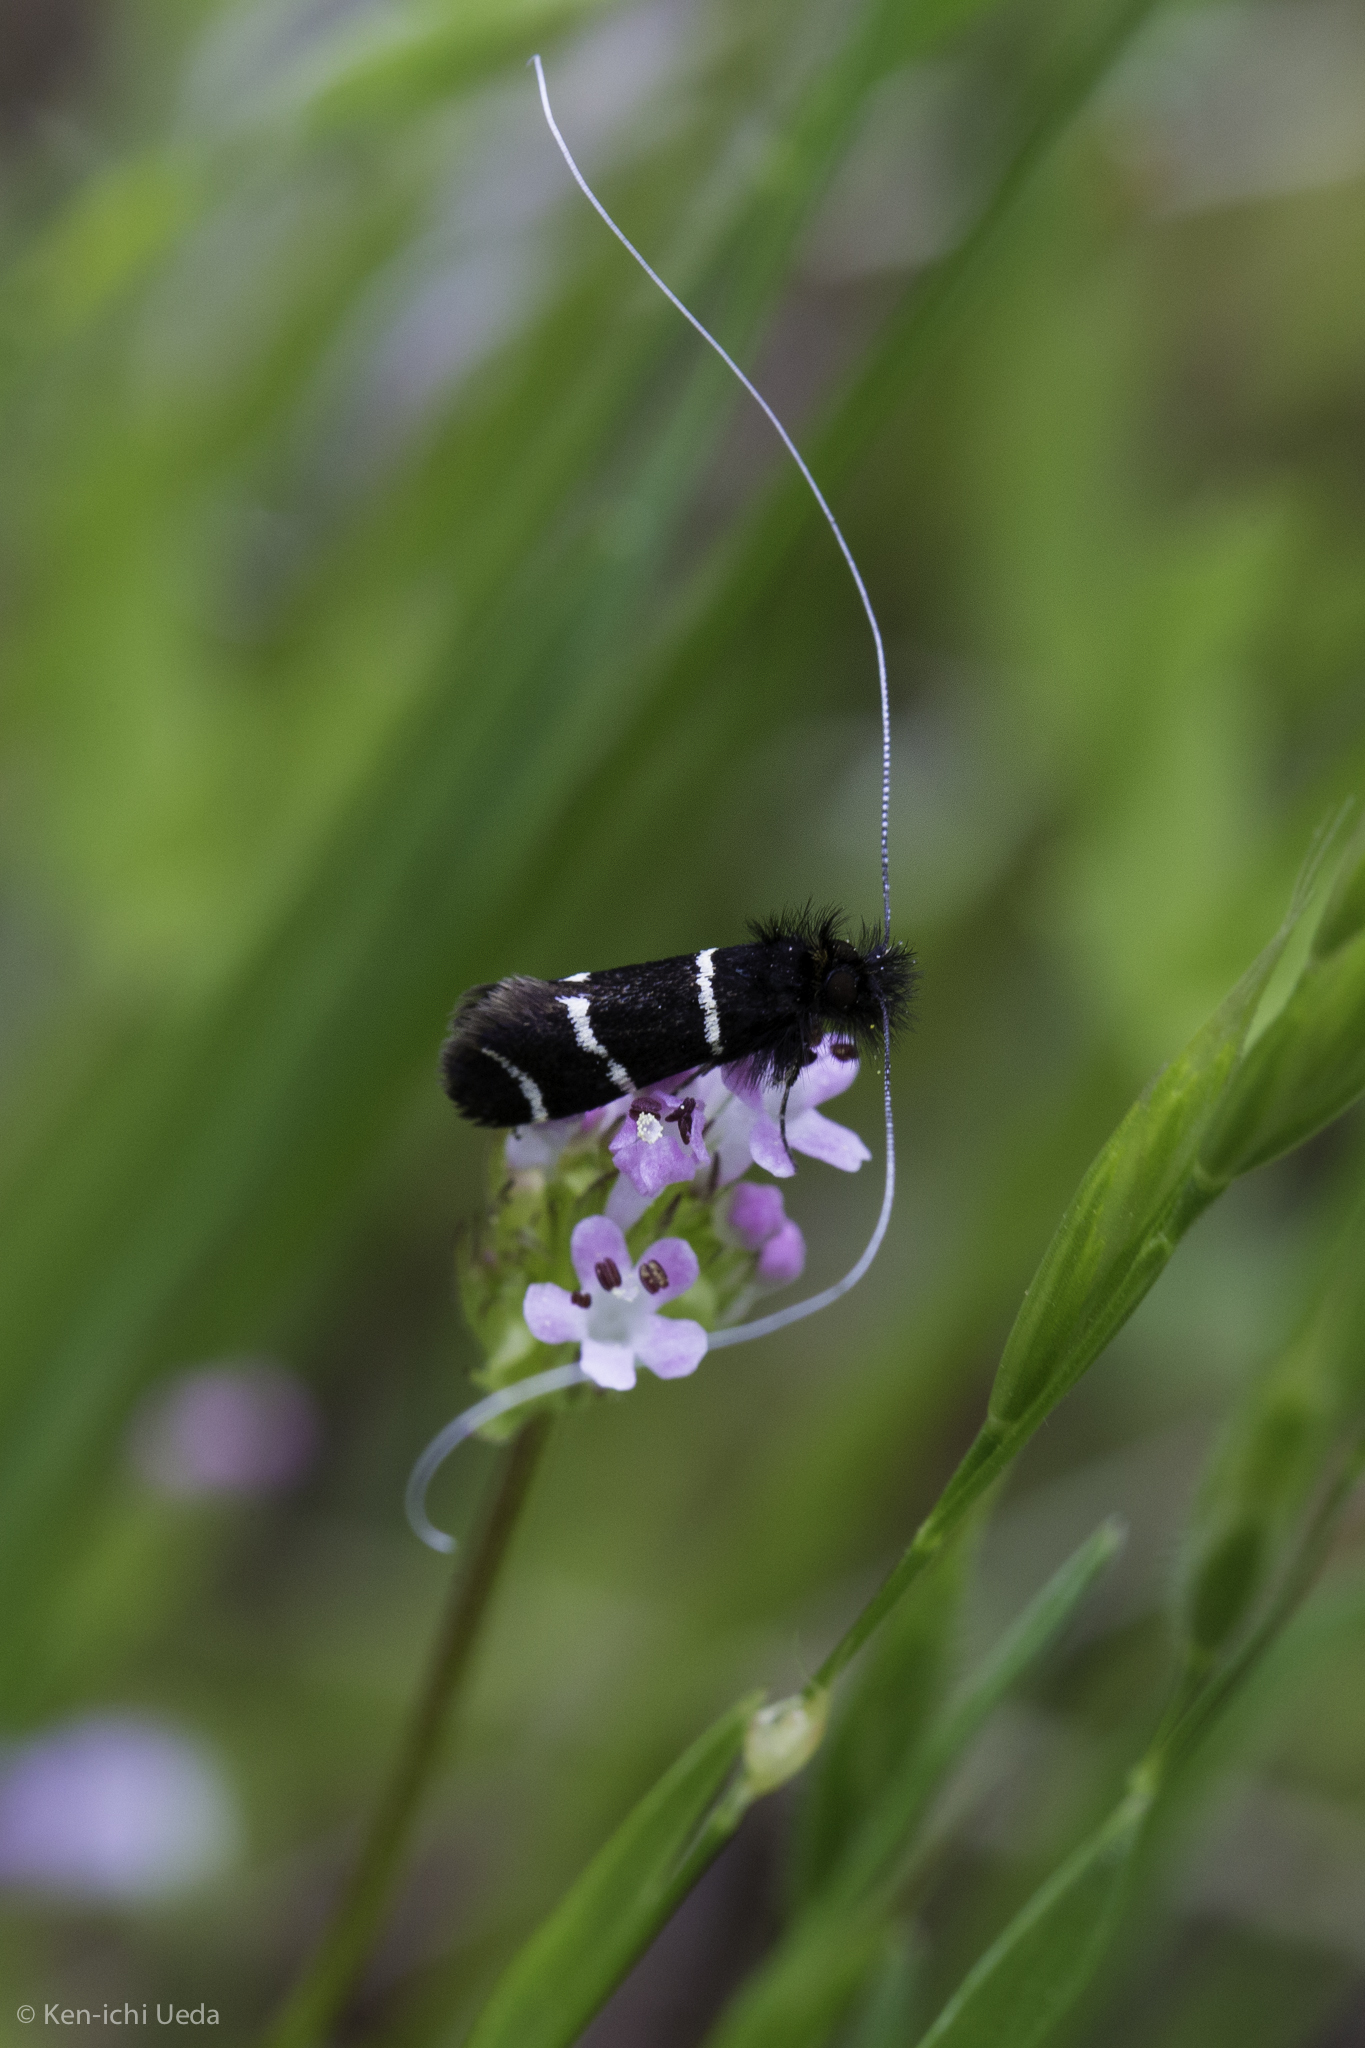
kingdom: Animalia
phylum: Arthropoda
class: Insecta
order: Lepidoptera
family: Adelidae
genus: Adela
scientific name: Adela trigrapha
